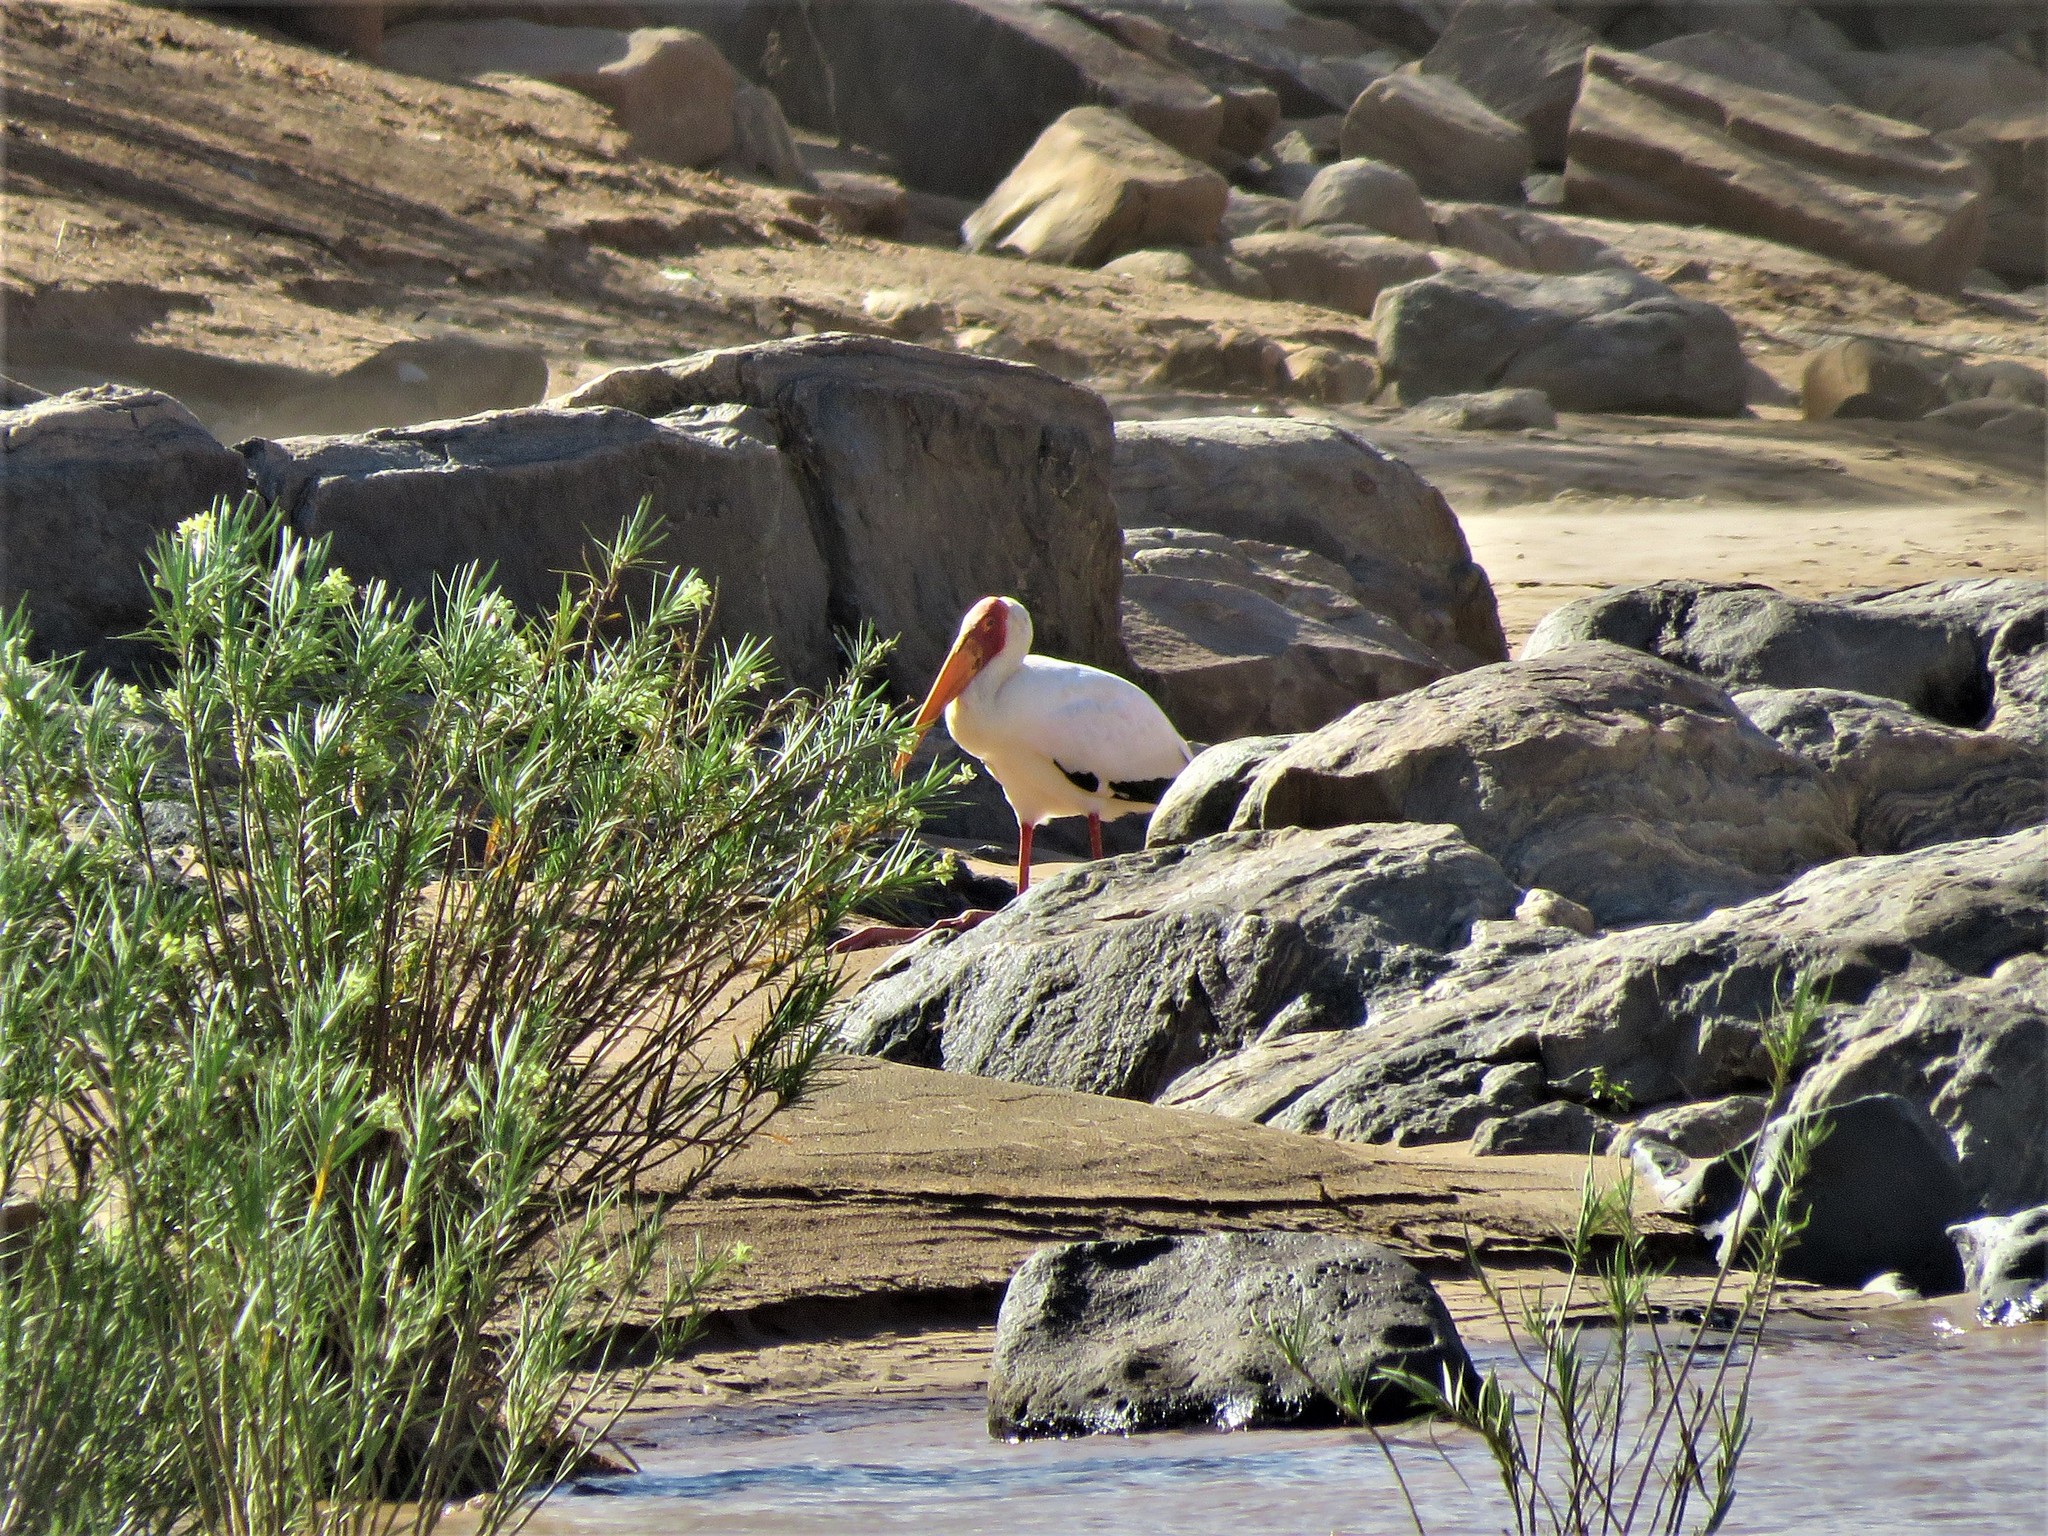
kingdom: Animalia
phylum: Chordata
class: Aves
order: Ciconiiformes
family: Ciconiidae
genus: Mycteria
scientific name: Mycteria ibis
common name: Yellow-billed stork
